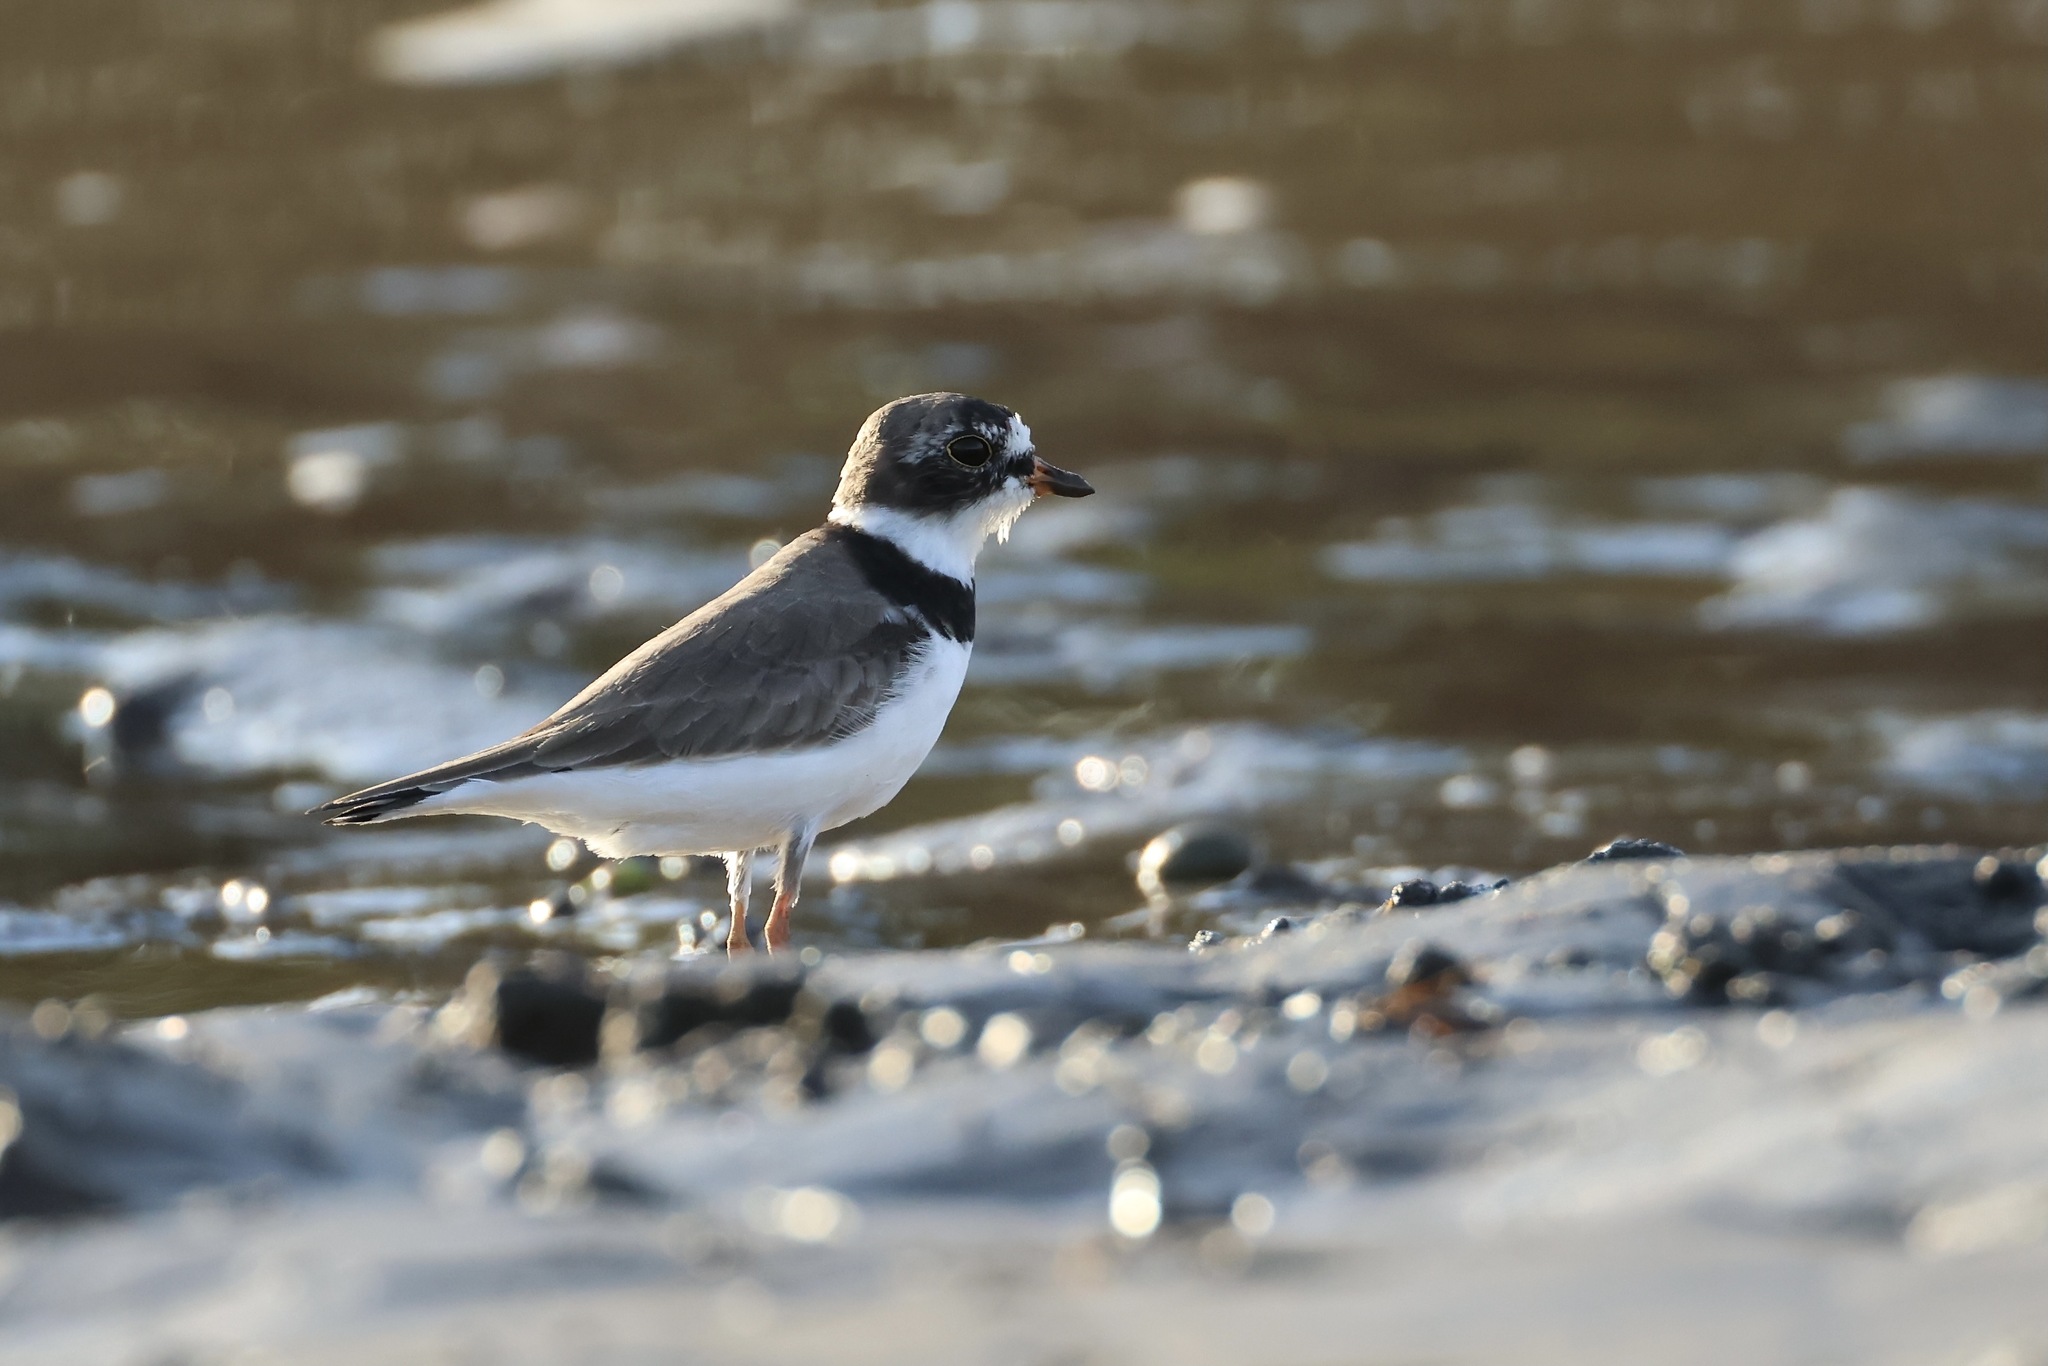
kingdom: Animalia
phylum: Chordata
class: Aves
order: Charadriiformes
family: Charadriidae
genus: Charadrius
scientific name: Charadrius semipalmatus
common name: Semipalmated plover
